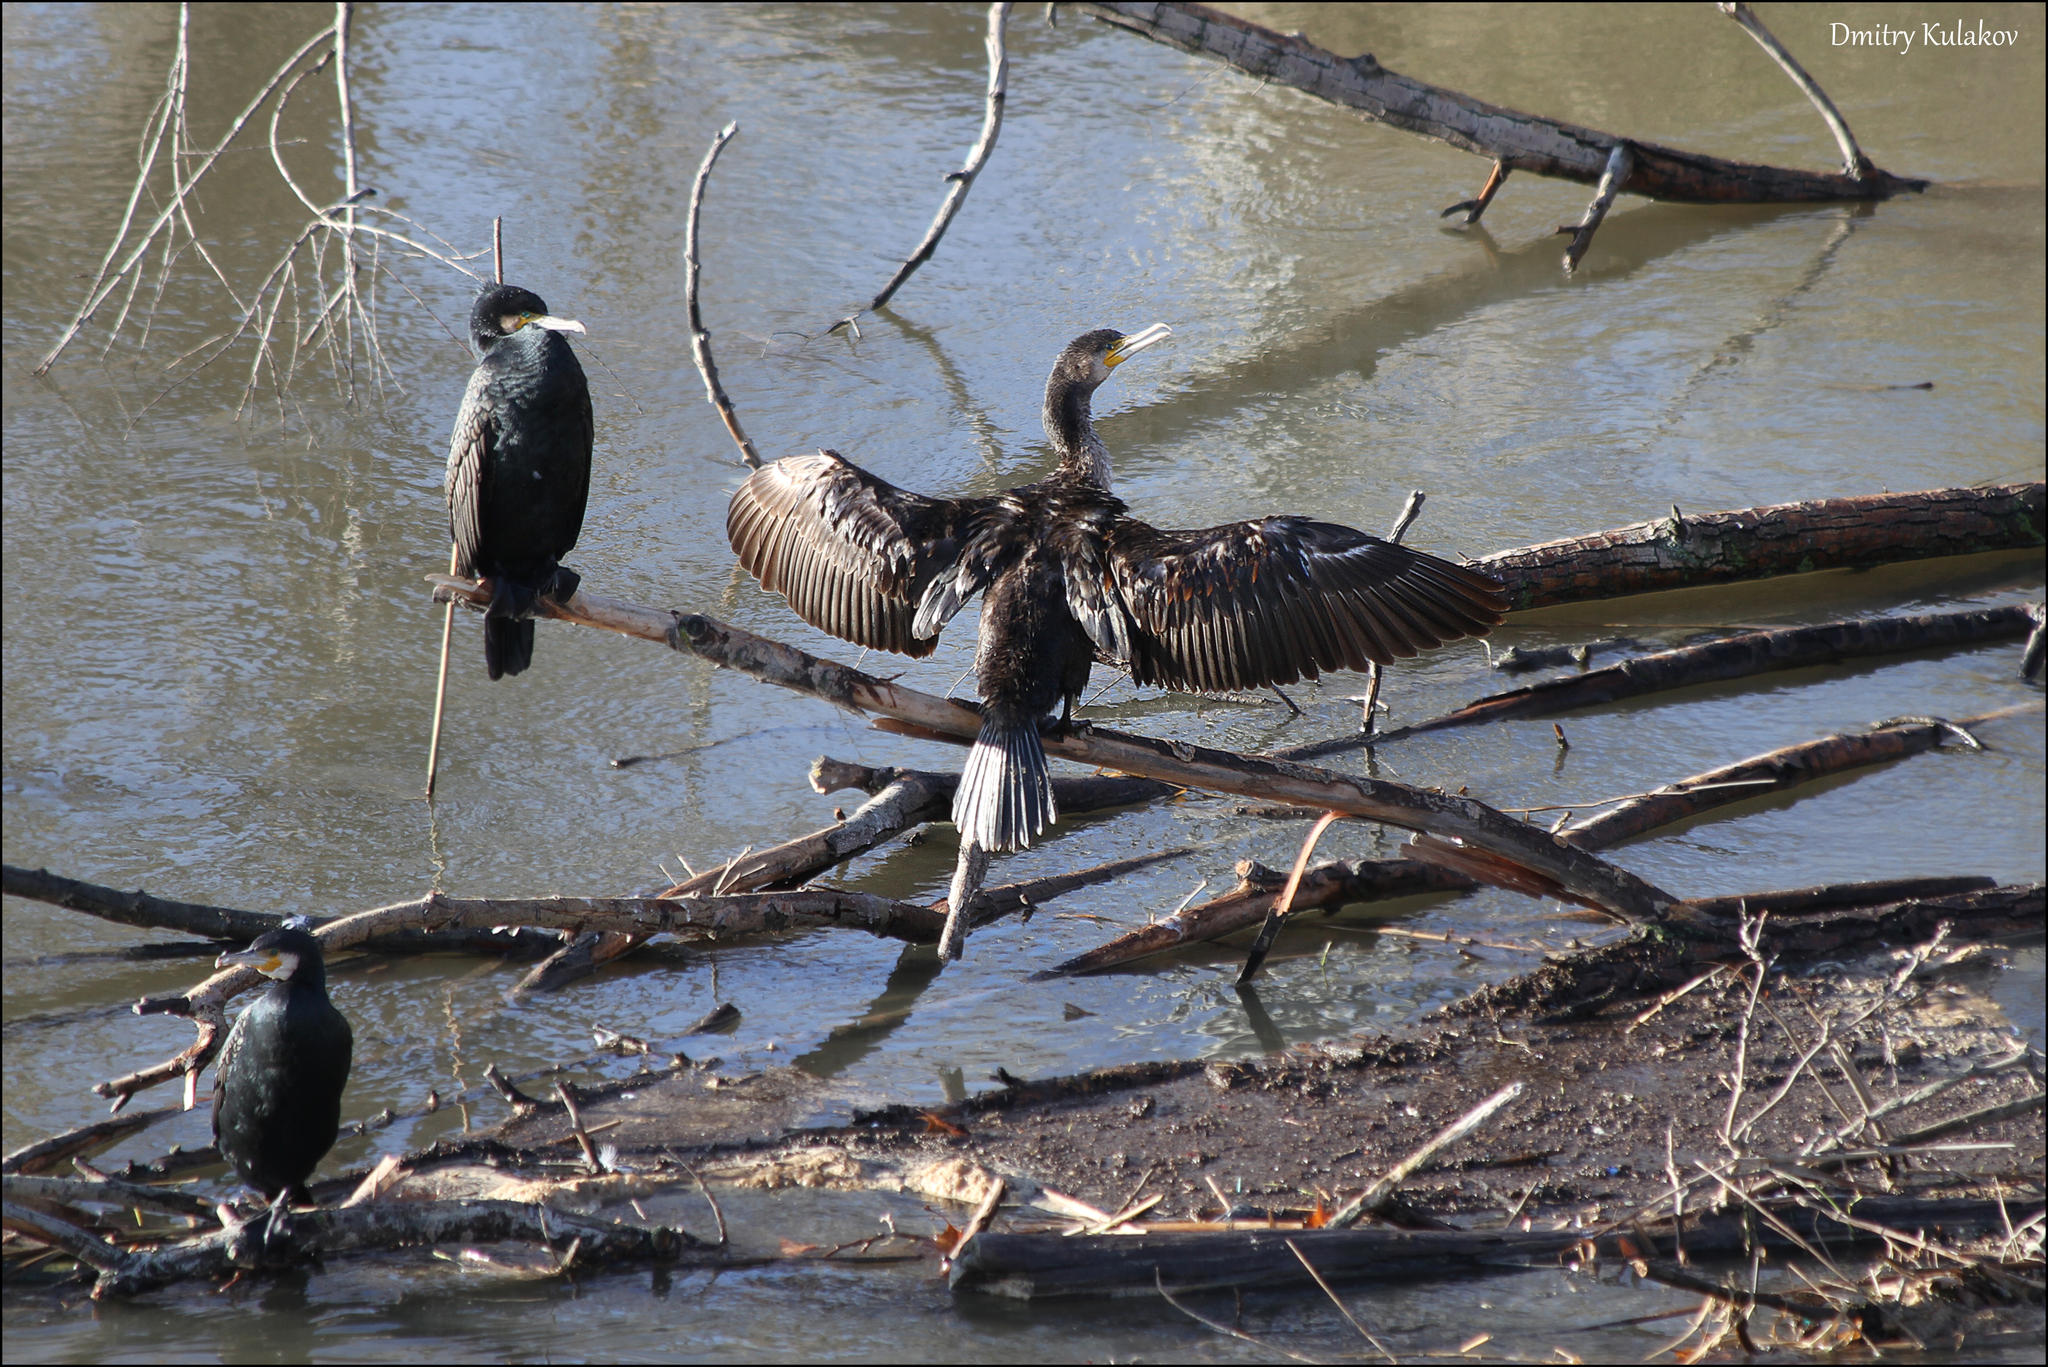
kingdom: Animalia
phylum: Chordata
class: Aves
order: Suliformes
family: Phalacrocoracidae
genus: Phalacrocorax
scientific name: Phalacrocorax carbo
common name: Great cormorant
